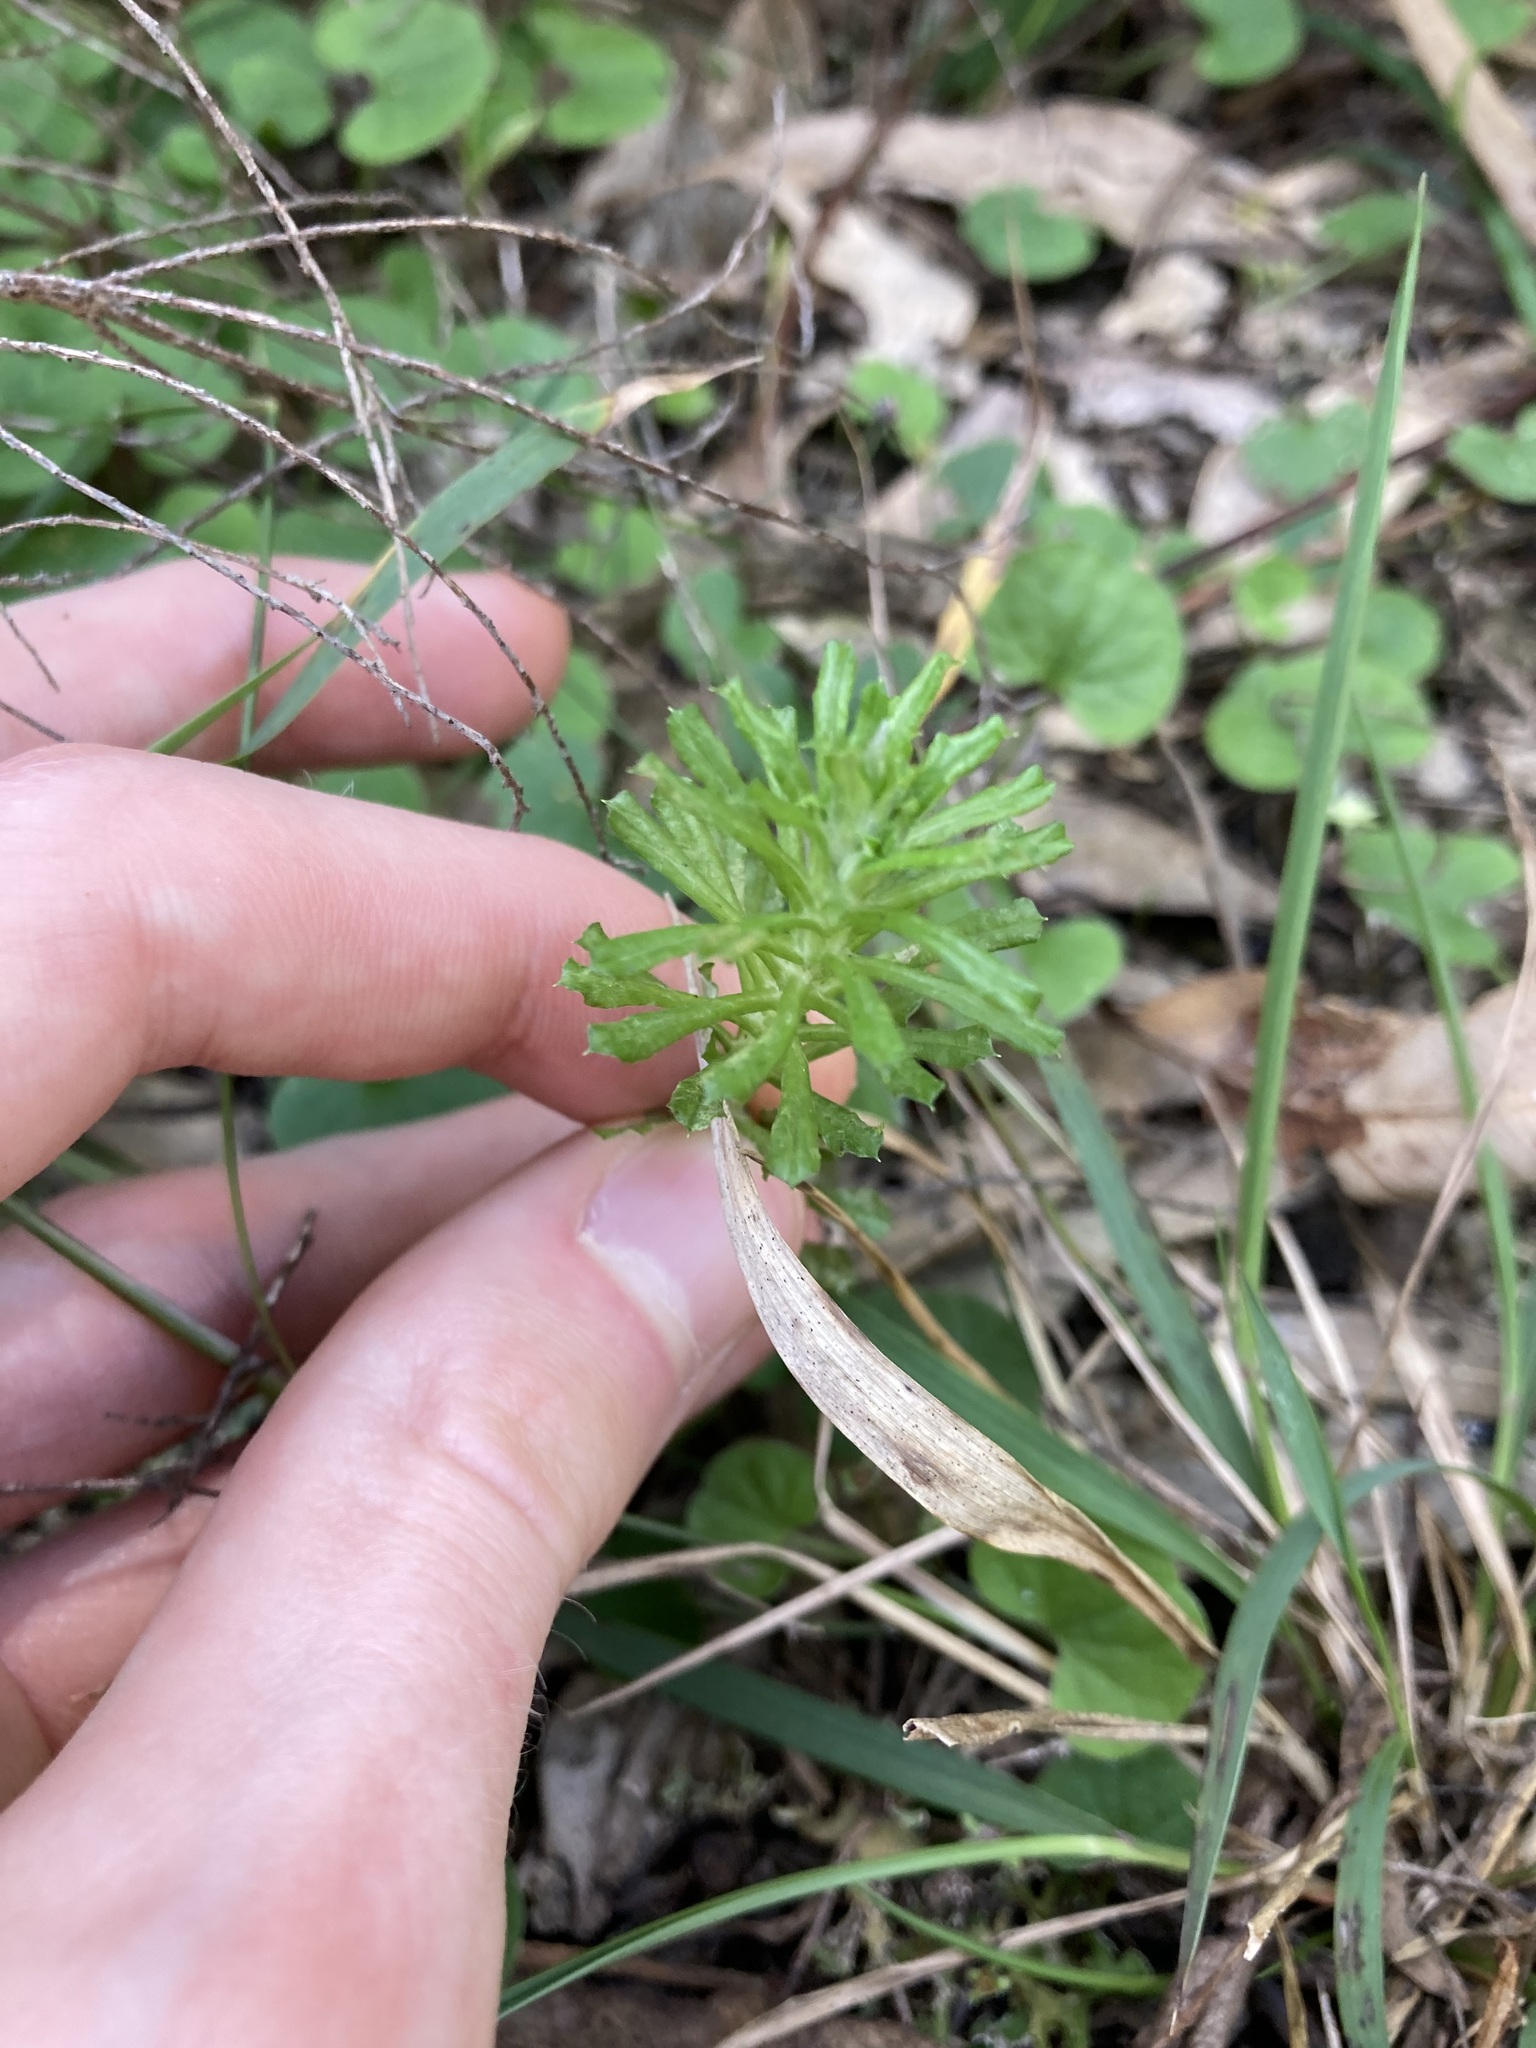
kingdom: Plantae
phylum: Tracheophyta
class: Magnoliopsida
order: Asterales
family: Asteraceae
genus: Facelis
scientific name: Facelis retusa
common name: Annual trampweed
